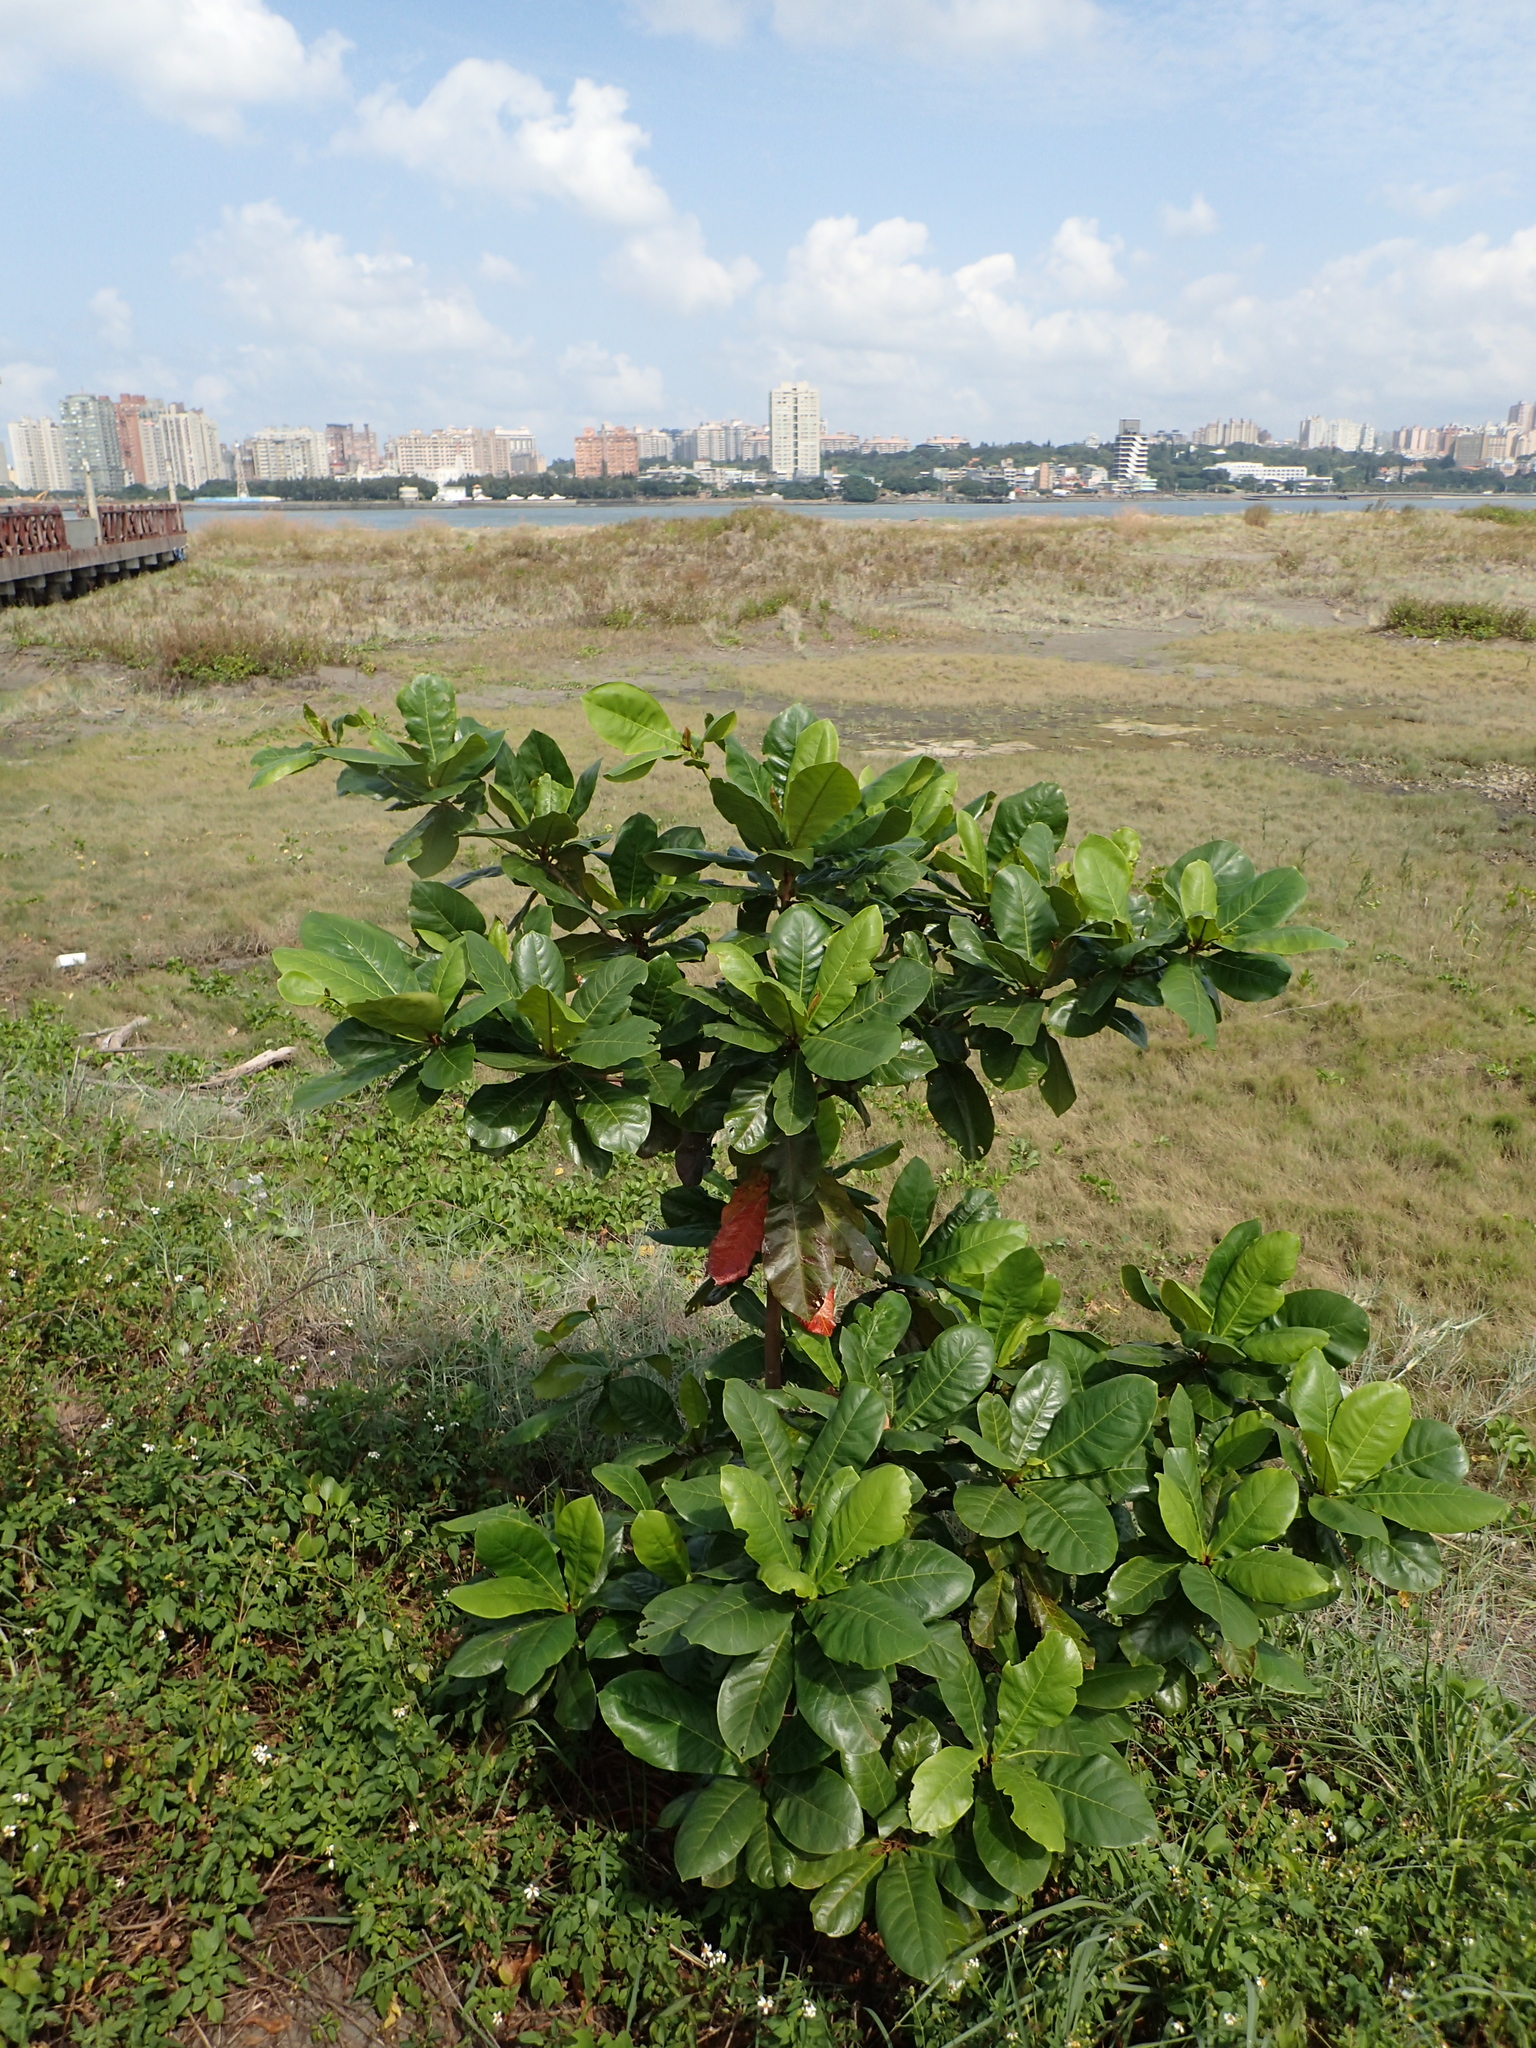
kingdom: Plantae
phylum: Tracheophyta
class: Magnoliopsida
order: Myrtales
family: Combretaceae
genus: Terminalia
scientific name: Terminalia catappa
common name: Tropical almond
